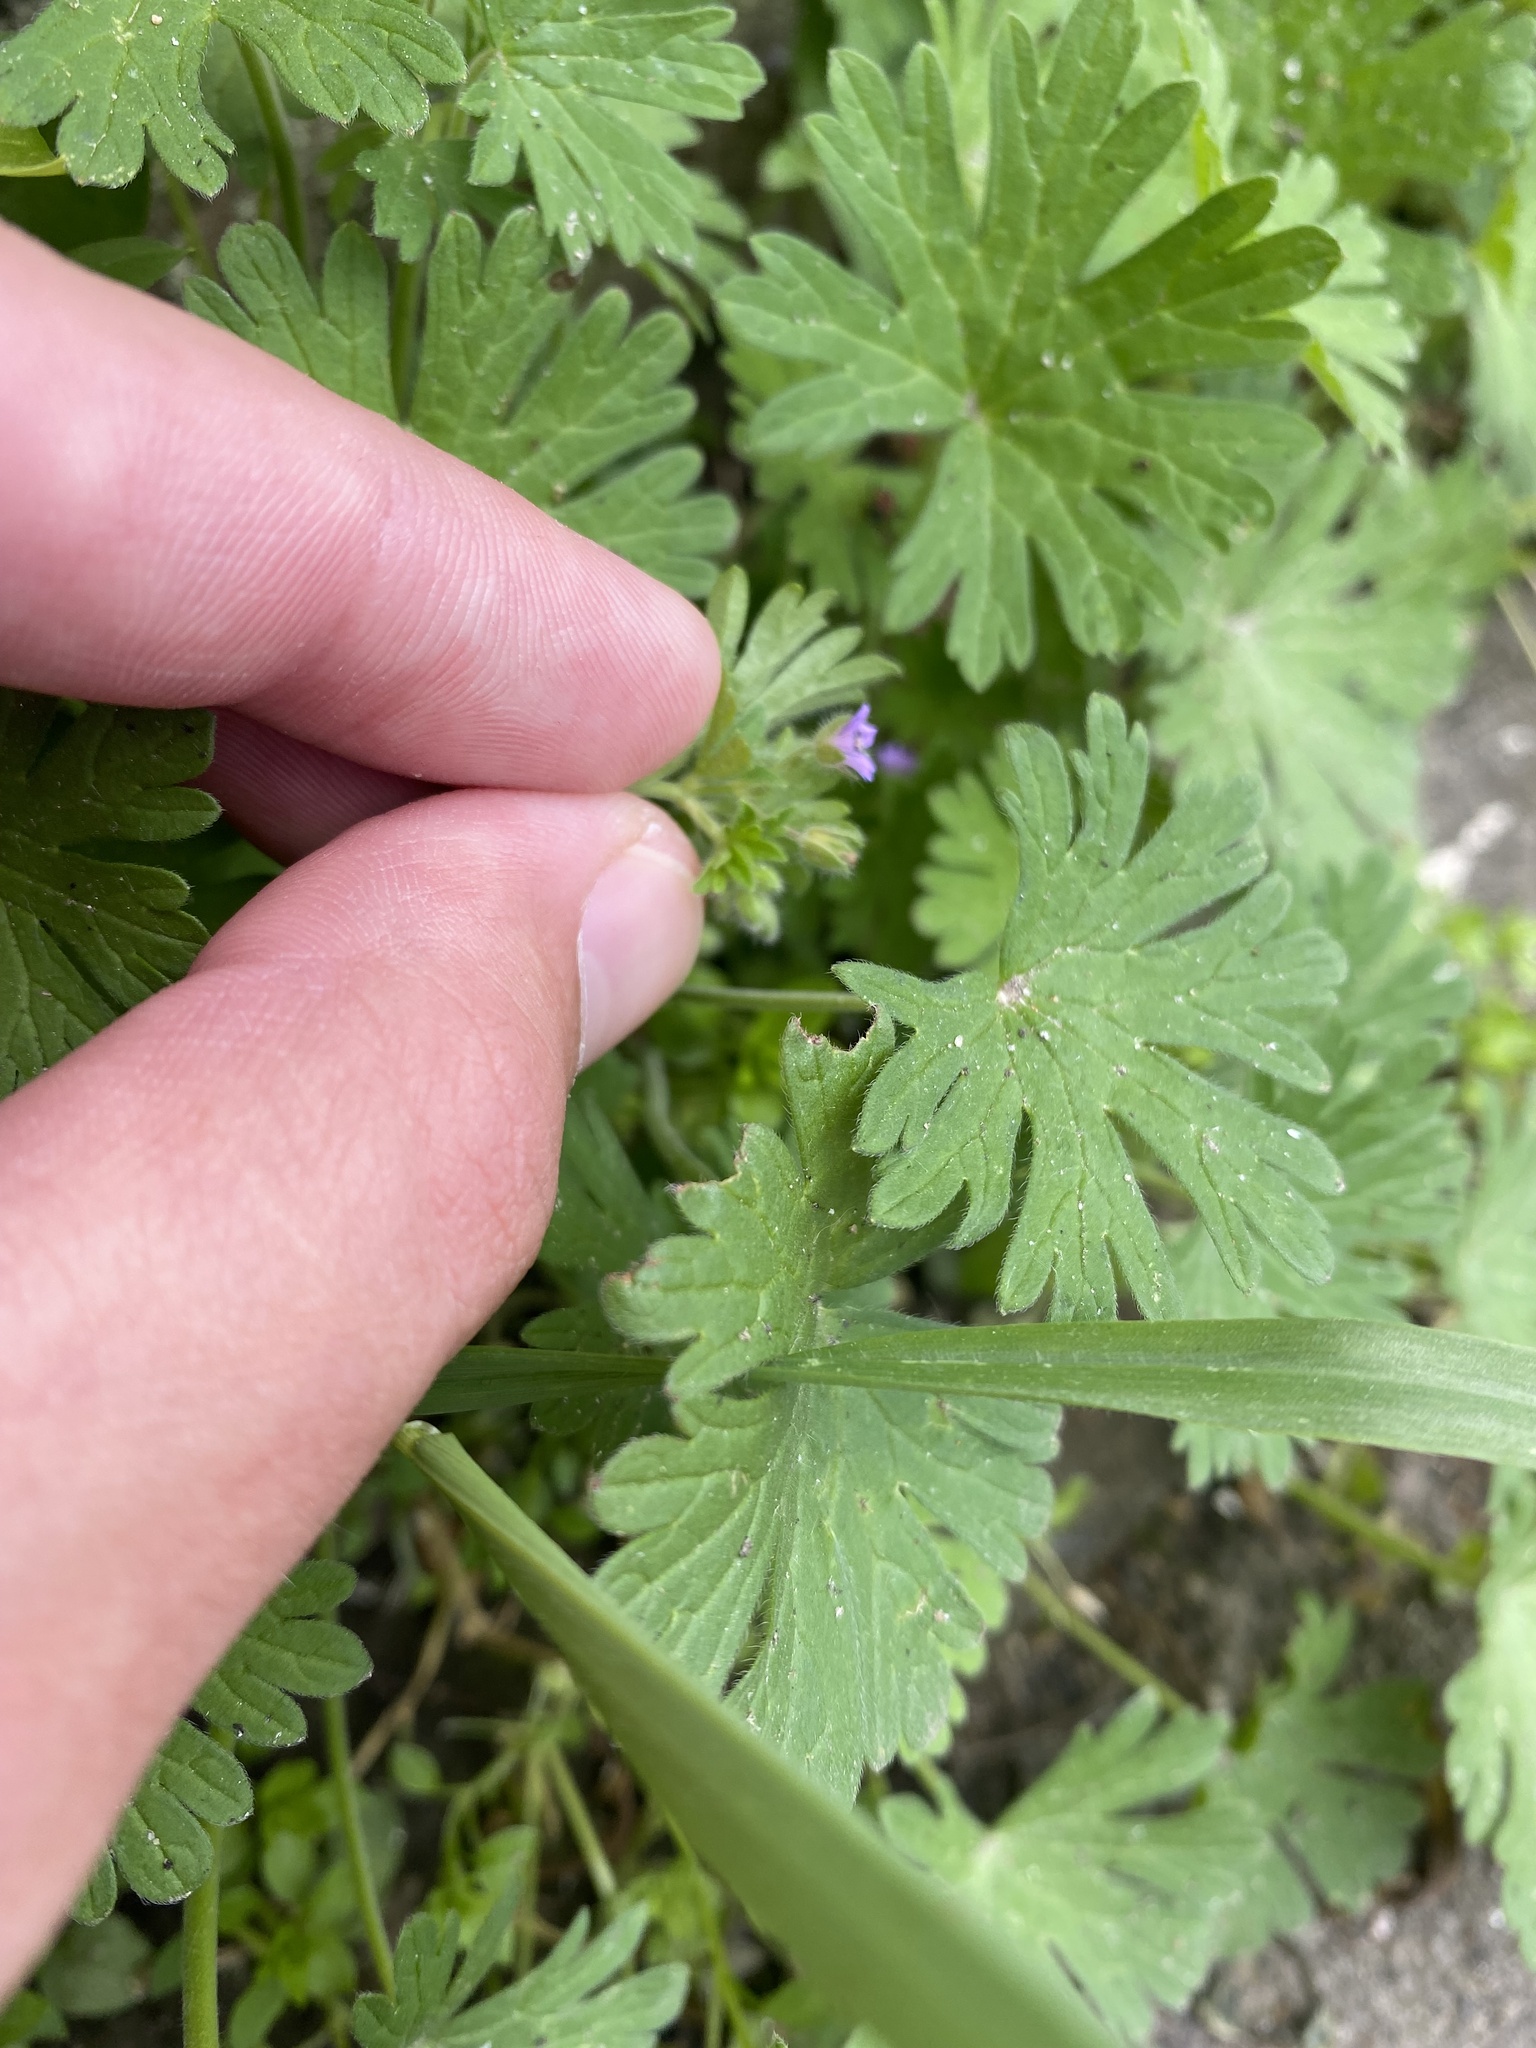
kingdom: Plantae
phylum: Tracheophyta
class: Magnoliopsida
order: Geraniales
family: Geraniaceae
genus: Geranium
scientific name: Geranium pusillum
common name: Small geranium
